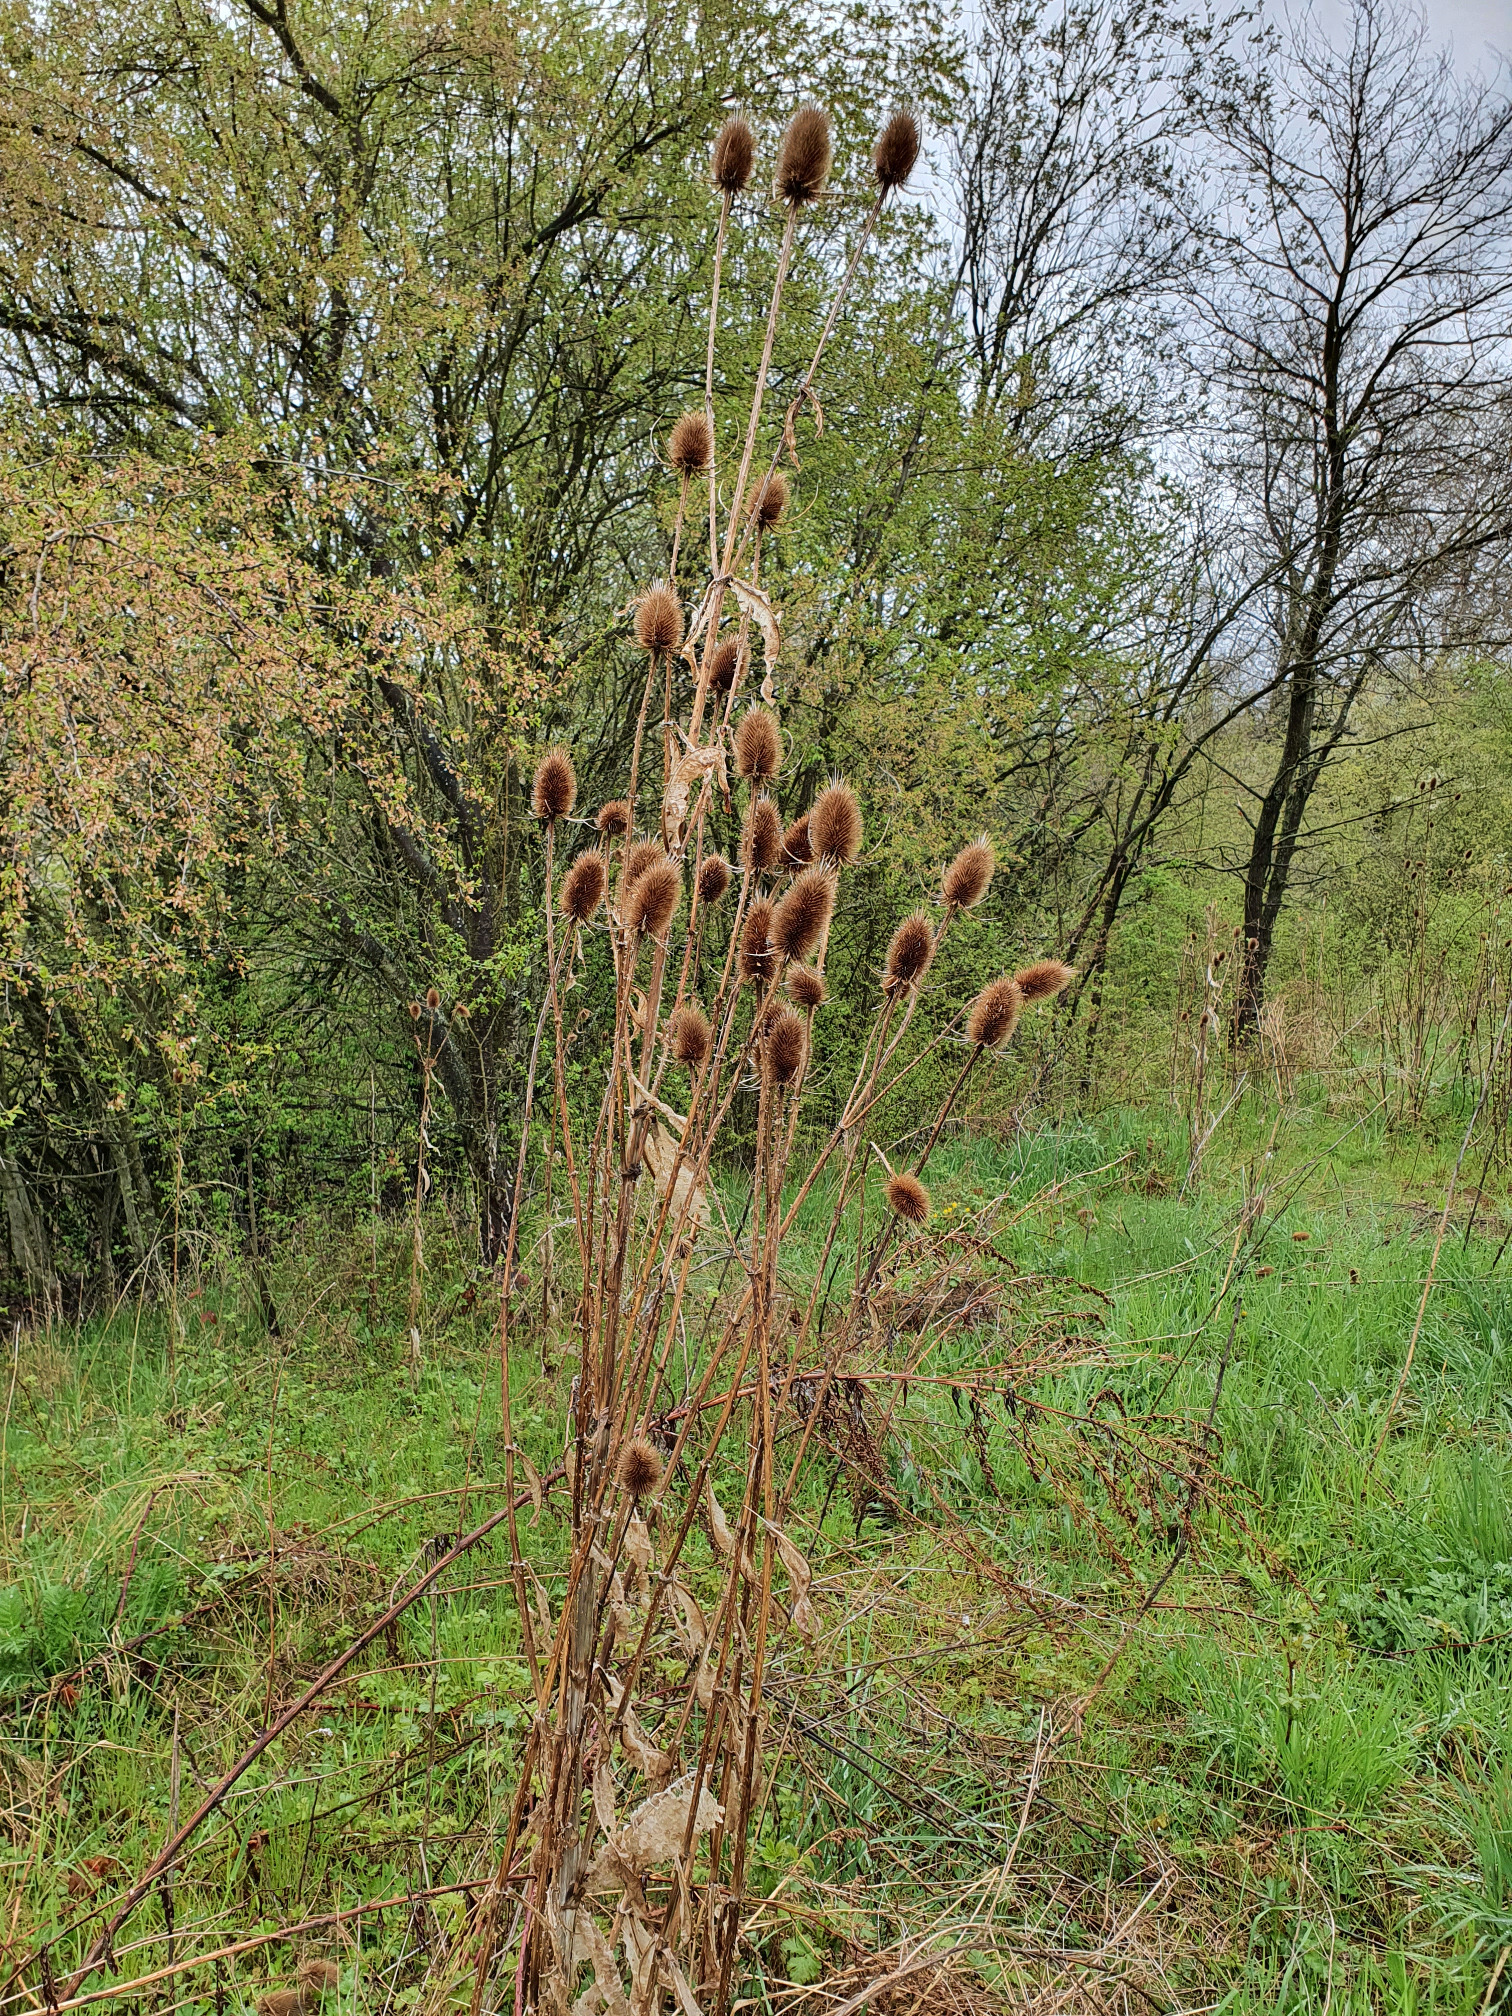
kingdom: Plantae
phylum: Tracheophyta
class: Magnoliopsida
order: Dipsacales
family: Caprifoliaceae
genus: Dipsacus
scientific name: Dipsacus fullonum
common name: Teasel
